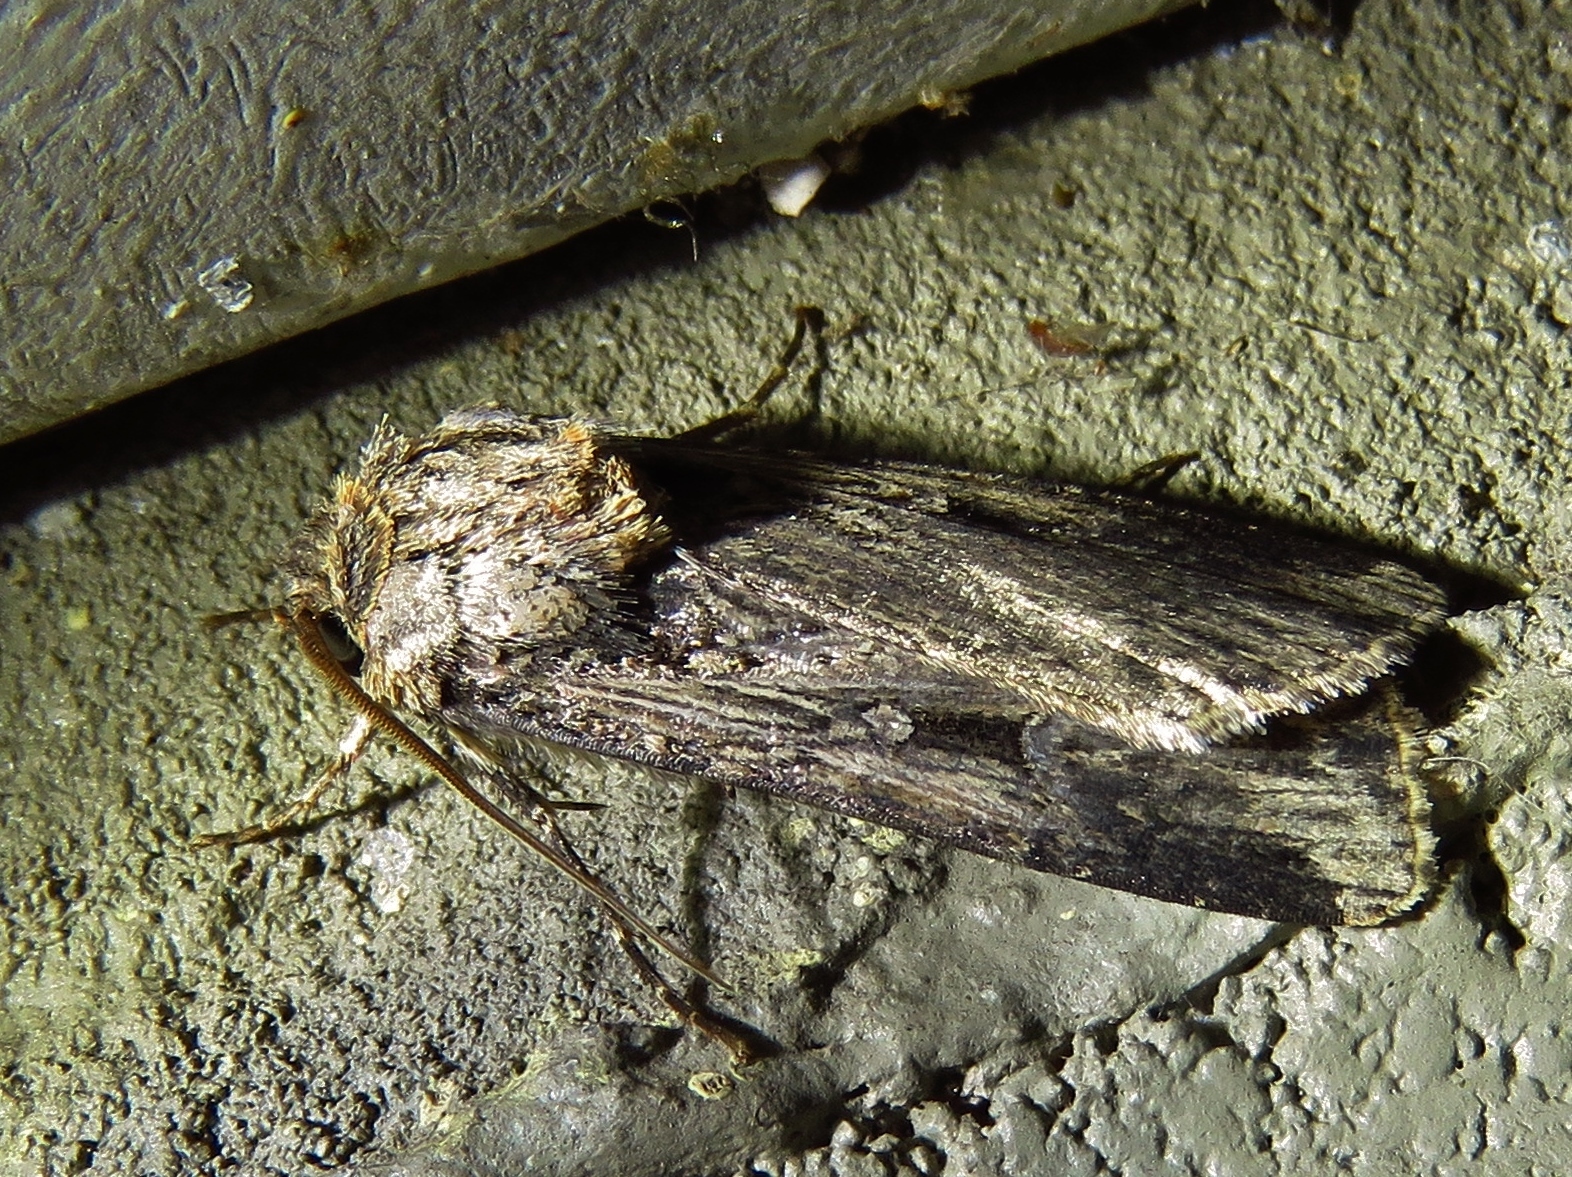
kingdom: Animalia
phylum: Arthropoda
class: Insecta
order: Lepidoptera
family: Noctuidae
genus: Feltia
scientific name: Feltia subterranea
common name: Granulate cutworm
